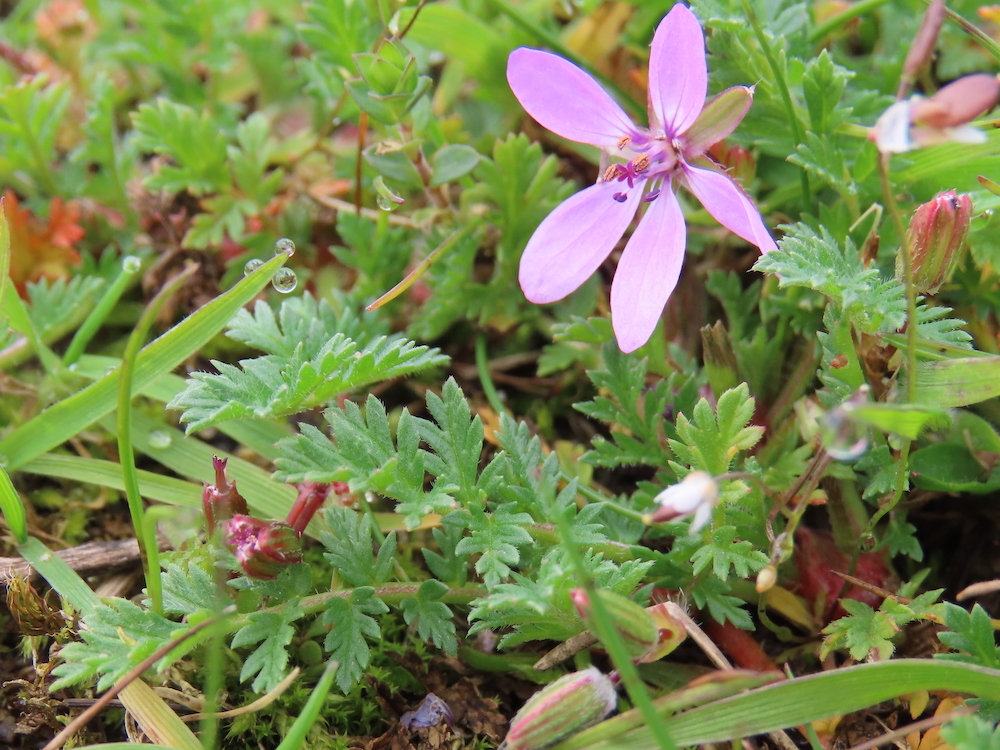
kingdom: Plantae
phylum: Tracheophyta
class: Magnoliopsida
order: Geraniales
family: Geraniaceae
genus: Erodium
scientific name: Erodium cicutarium
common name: Common stork's-bill
